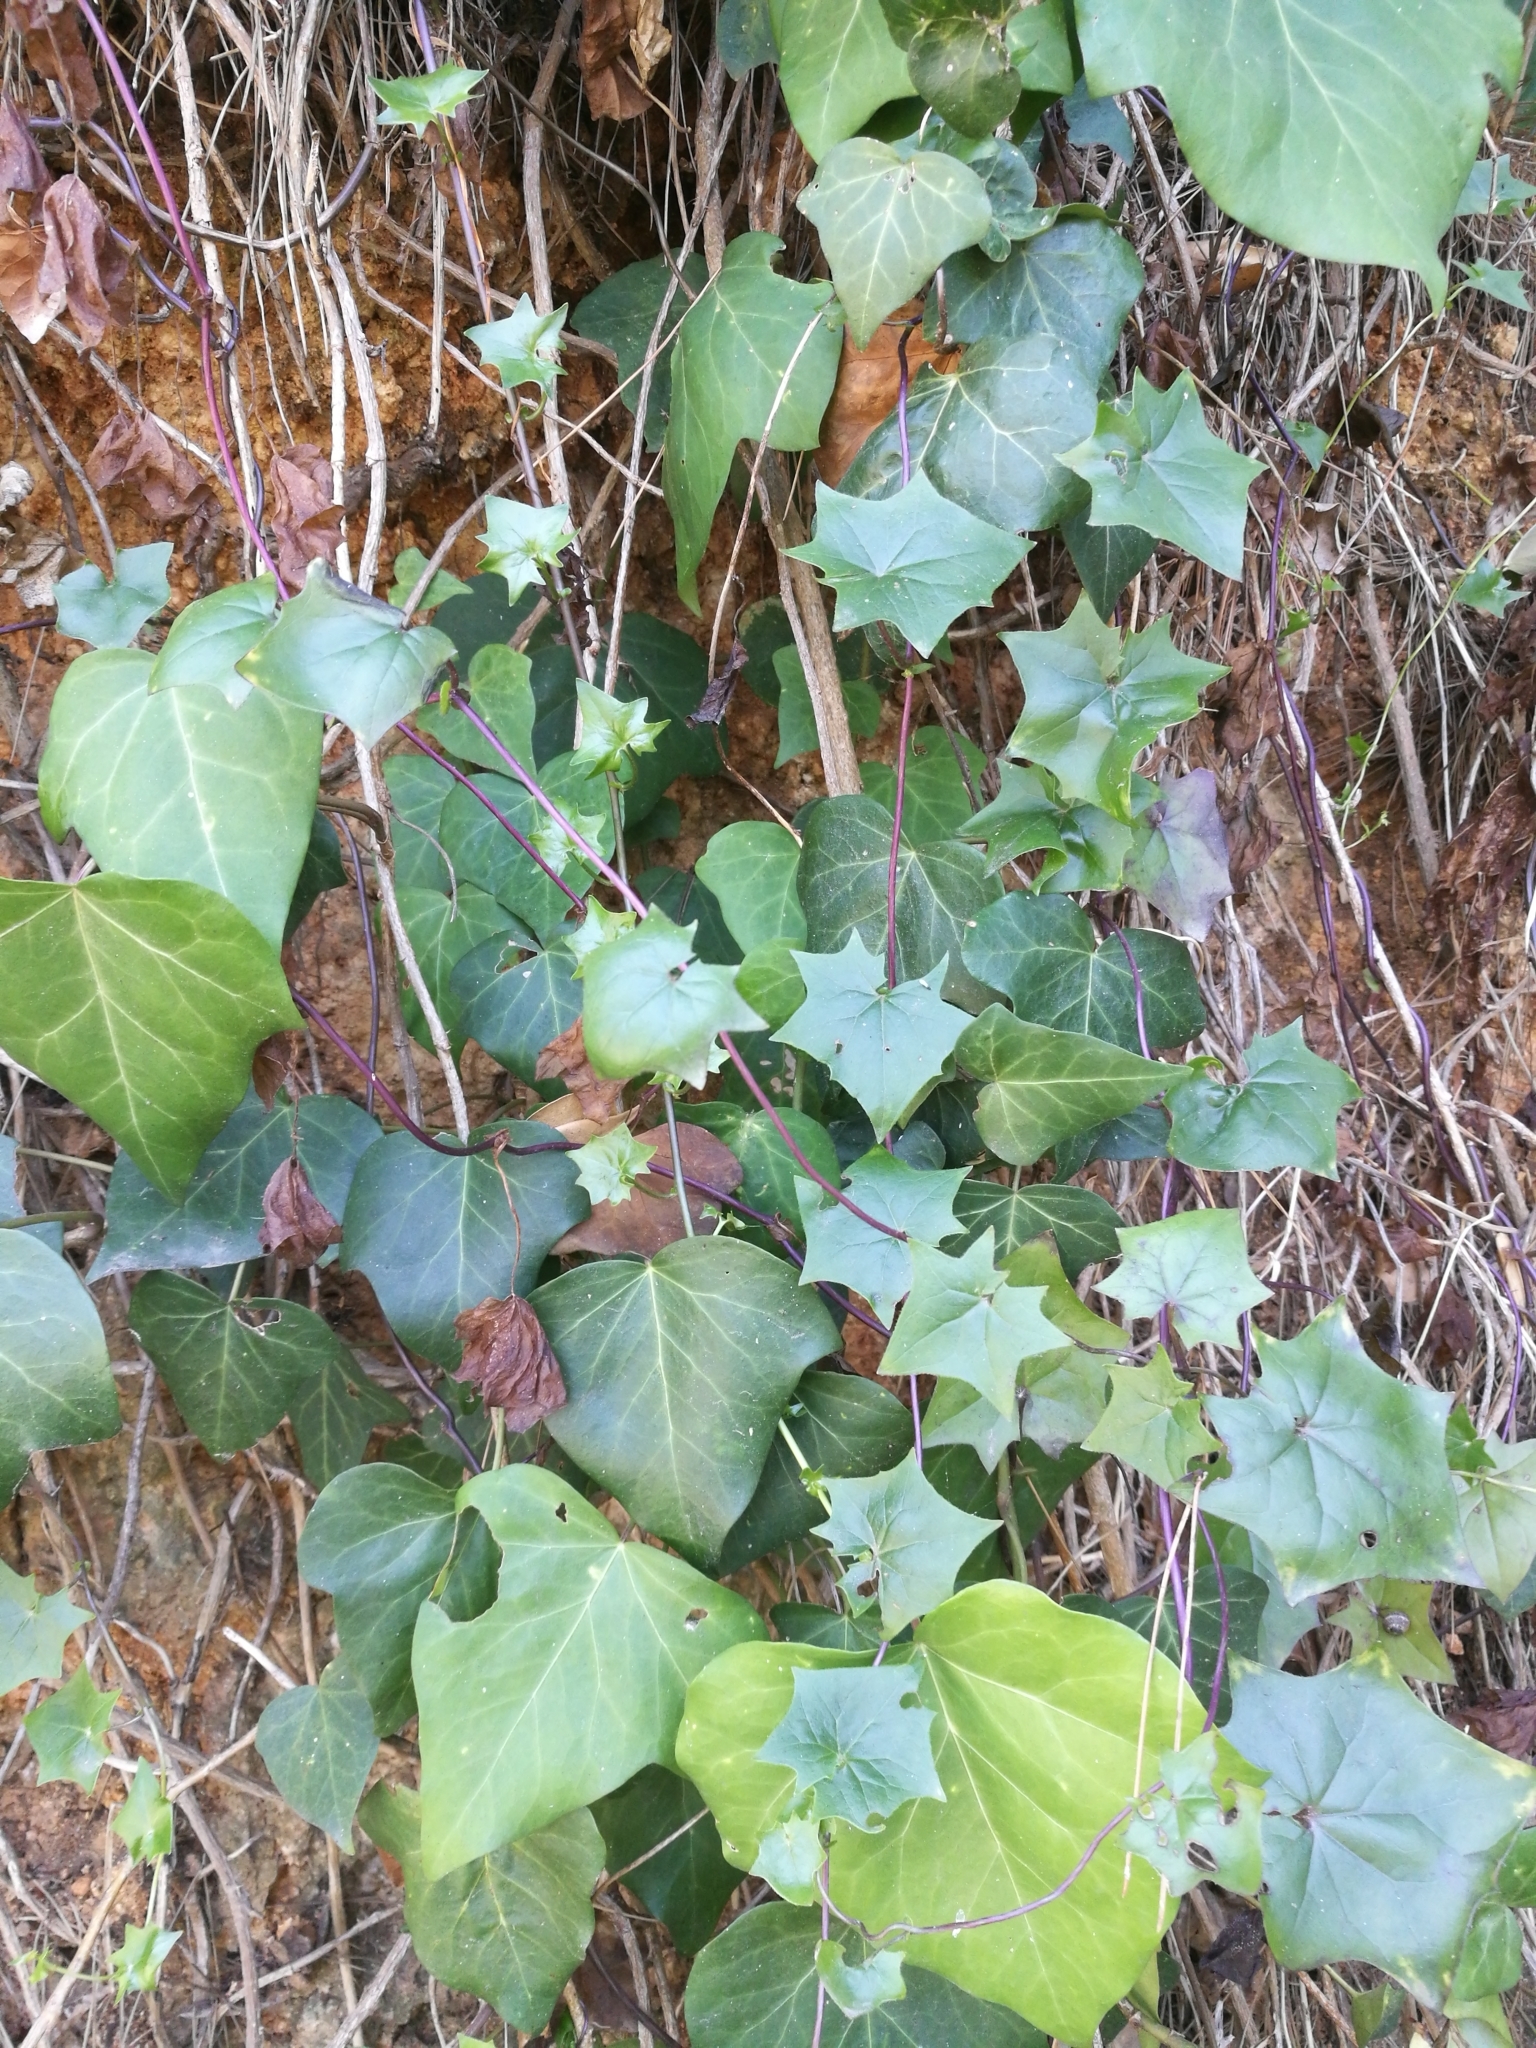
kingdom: Plantae
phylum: Tracheophyta
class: Magnoliopsida
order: Apiales
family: Araliaceae
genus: Hedera
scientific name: Hedera helix
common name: Ivy
